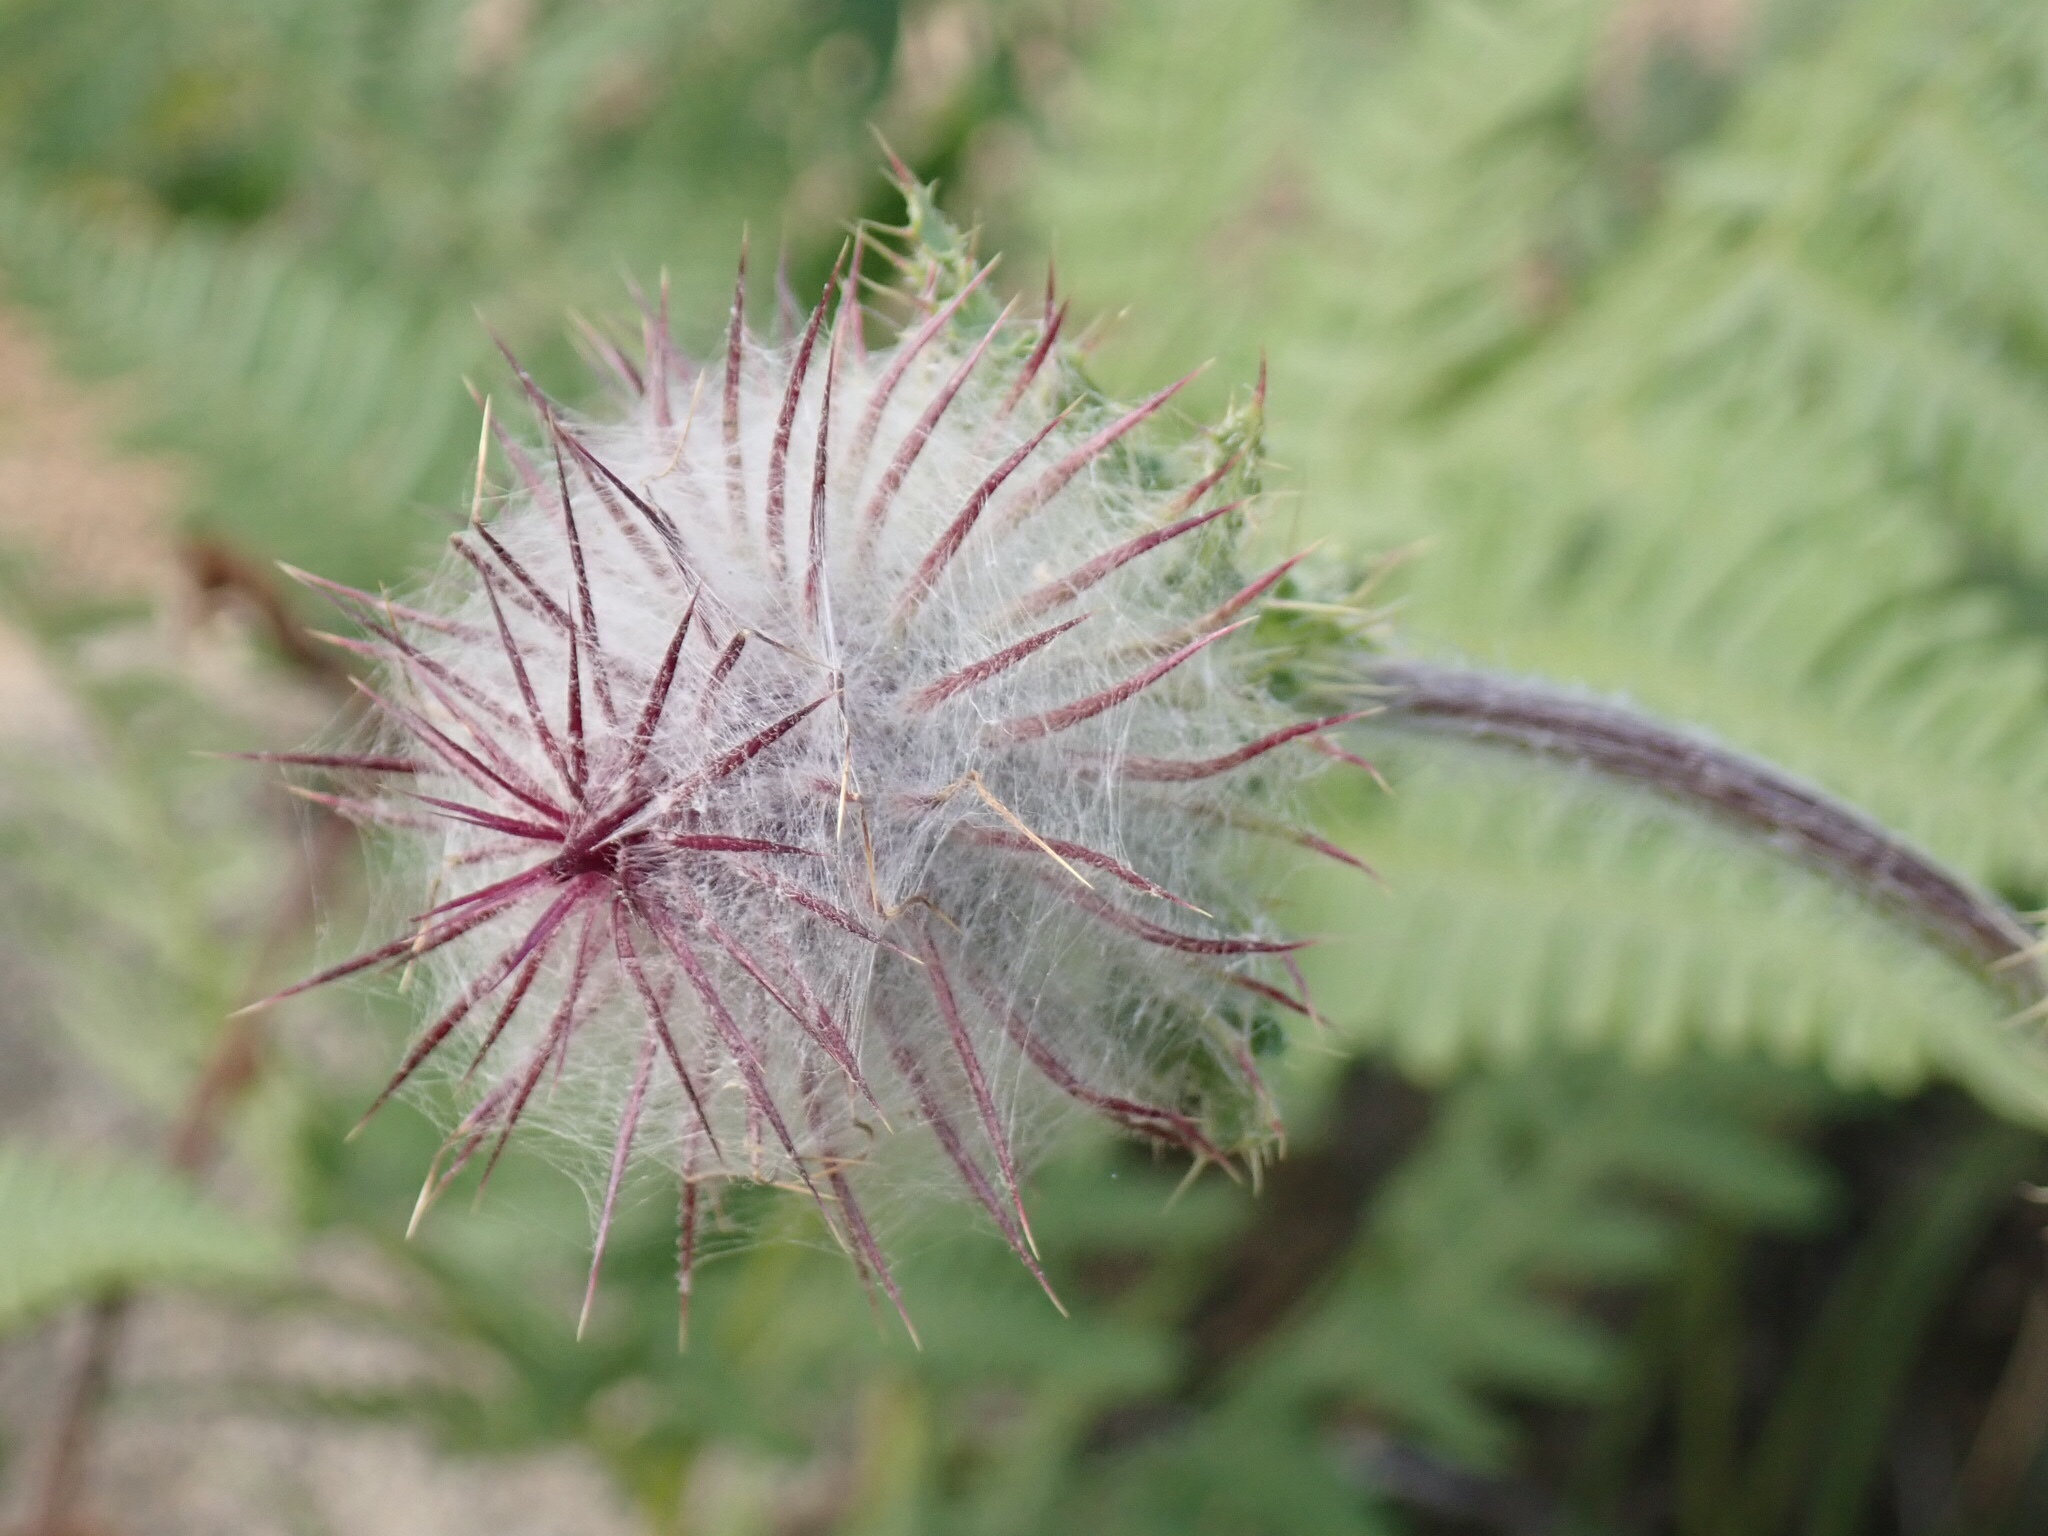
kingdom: Plantae
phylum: Tracheophyta
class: Magnoliopsida
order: Asterales
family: Asteraceae
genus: Cirsium
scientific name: Cirsium edule
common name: Indian thistle
